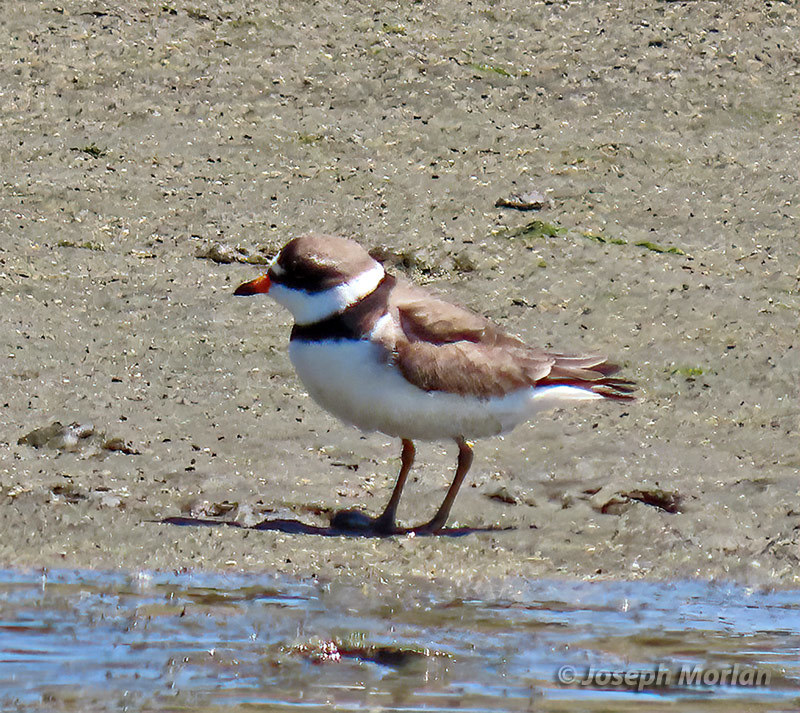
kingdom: Animalia
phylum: Chordata
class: Aves
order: Charadriiformes
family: Charadriidae
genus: Charadrius
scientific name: Charadrius semipalmatus
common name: Semipalmated plover
